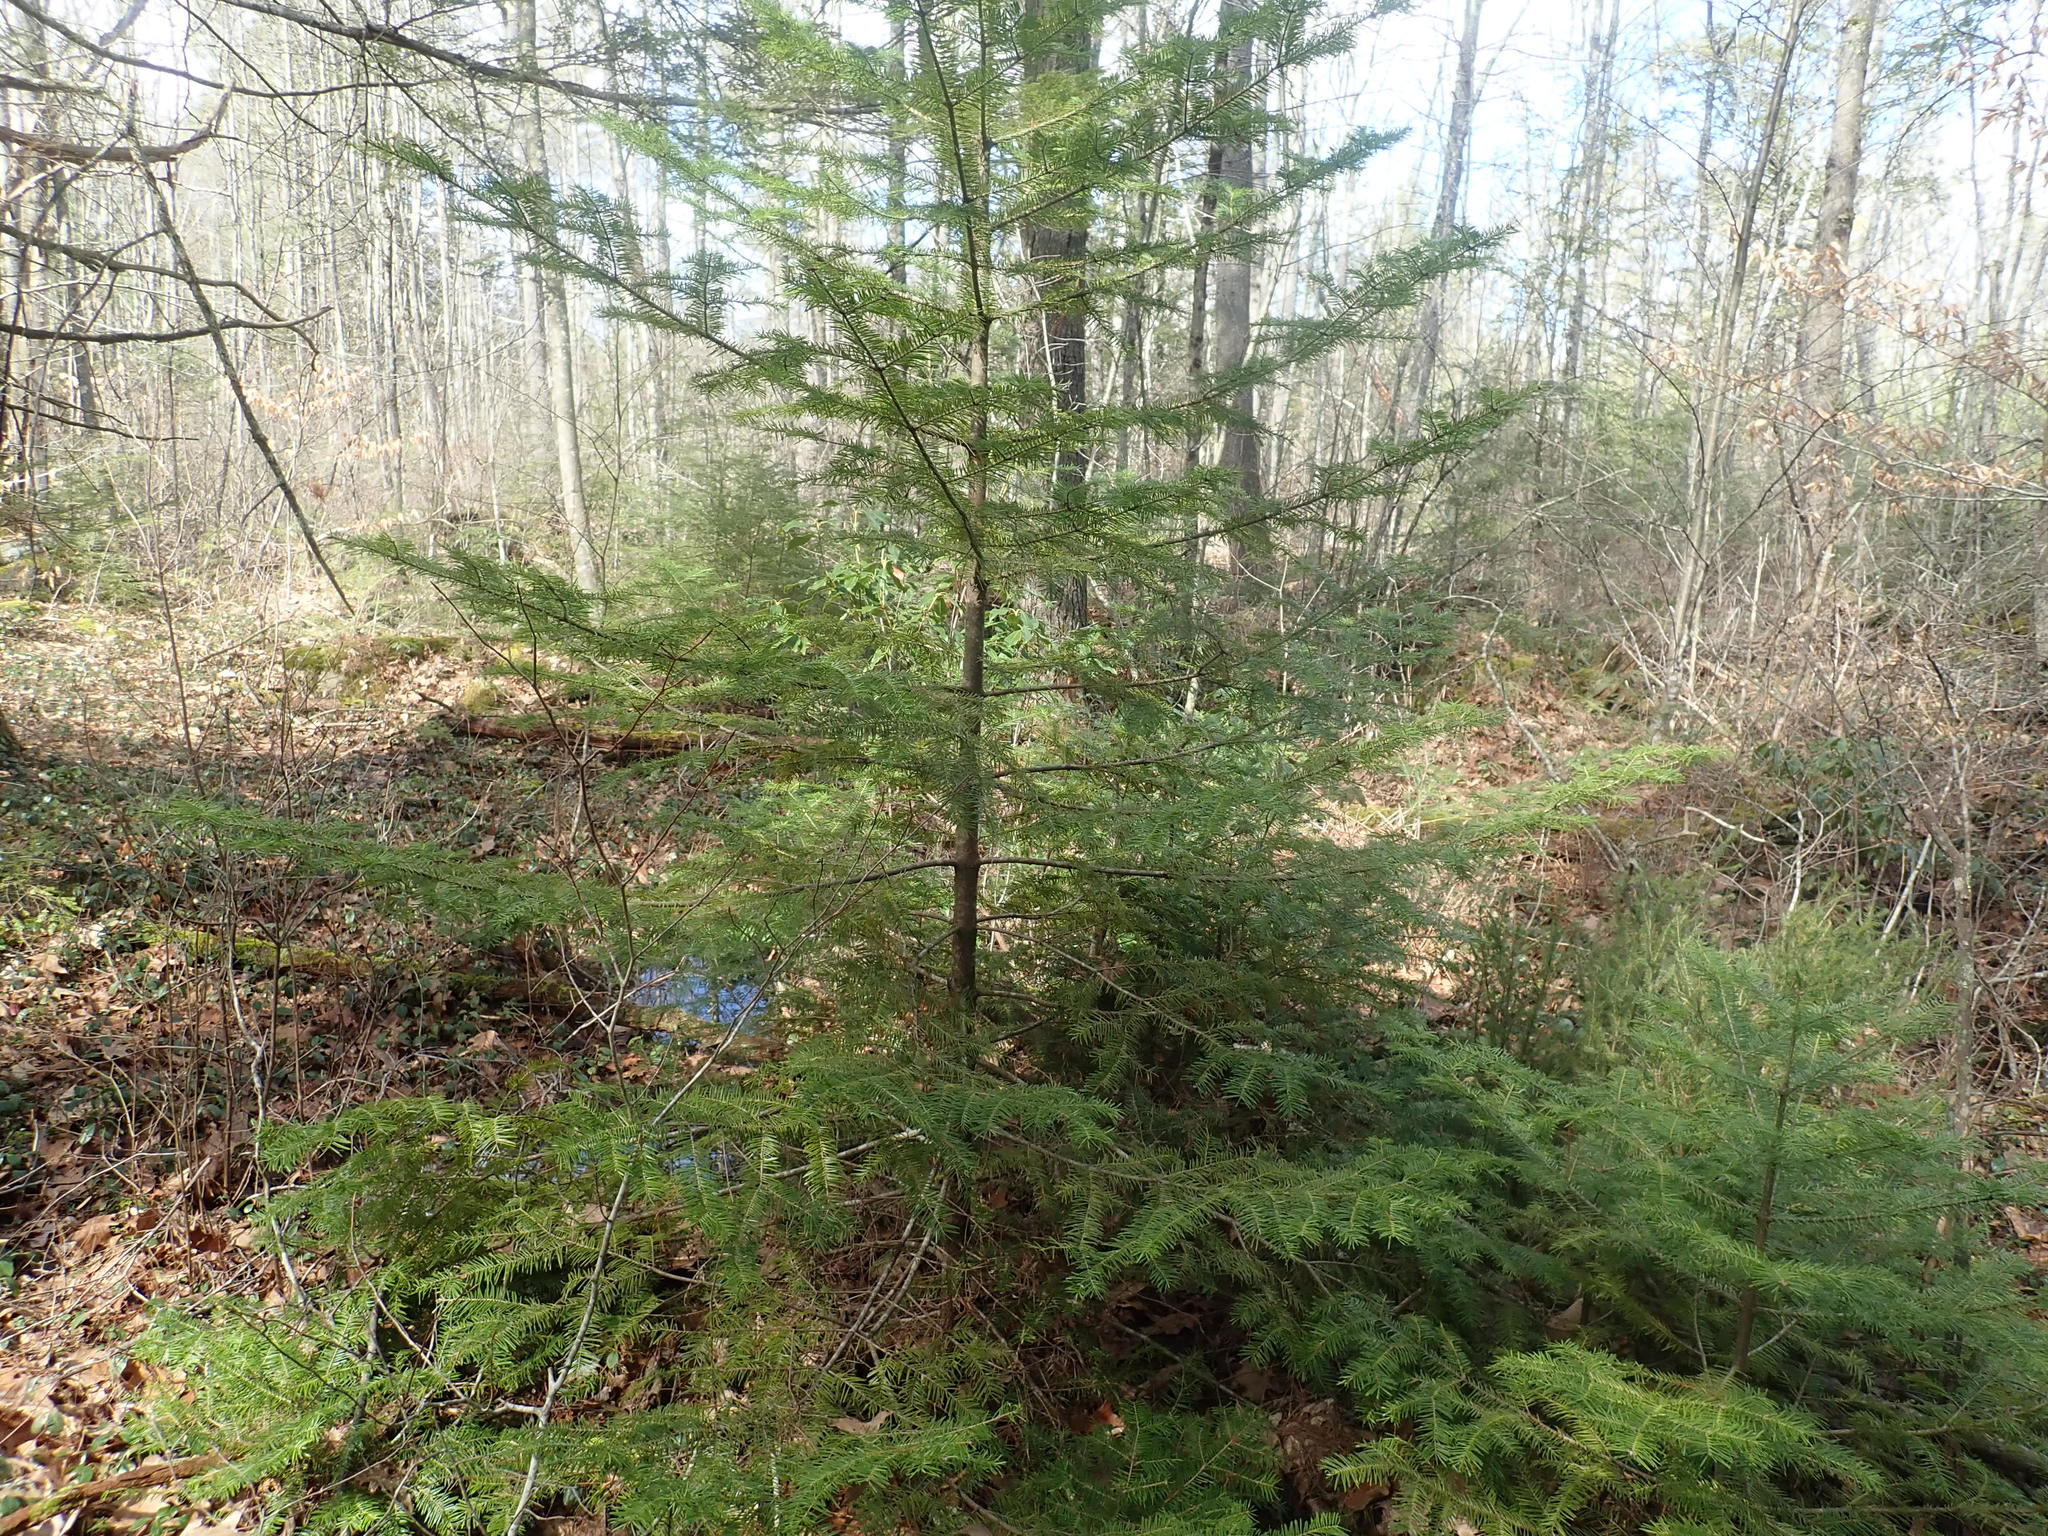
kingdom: Plantae
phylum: Tracheophyta
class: Pinopsida
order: Pinales
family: Pinaceae
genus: Abies
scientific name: Abies balsamea
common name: Balsam fir
